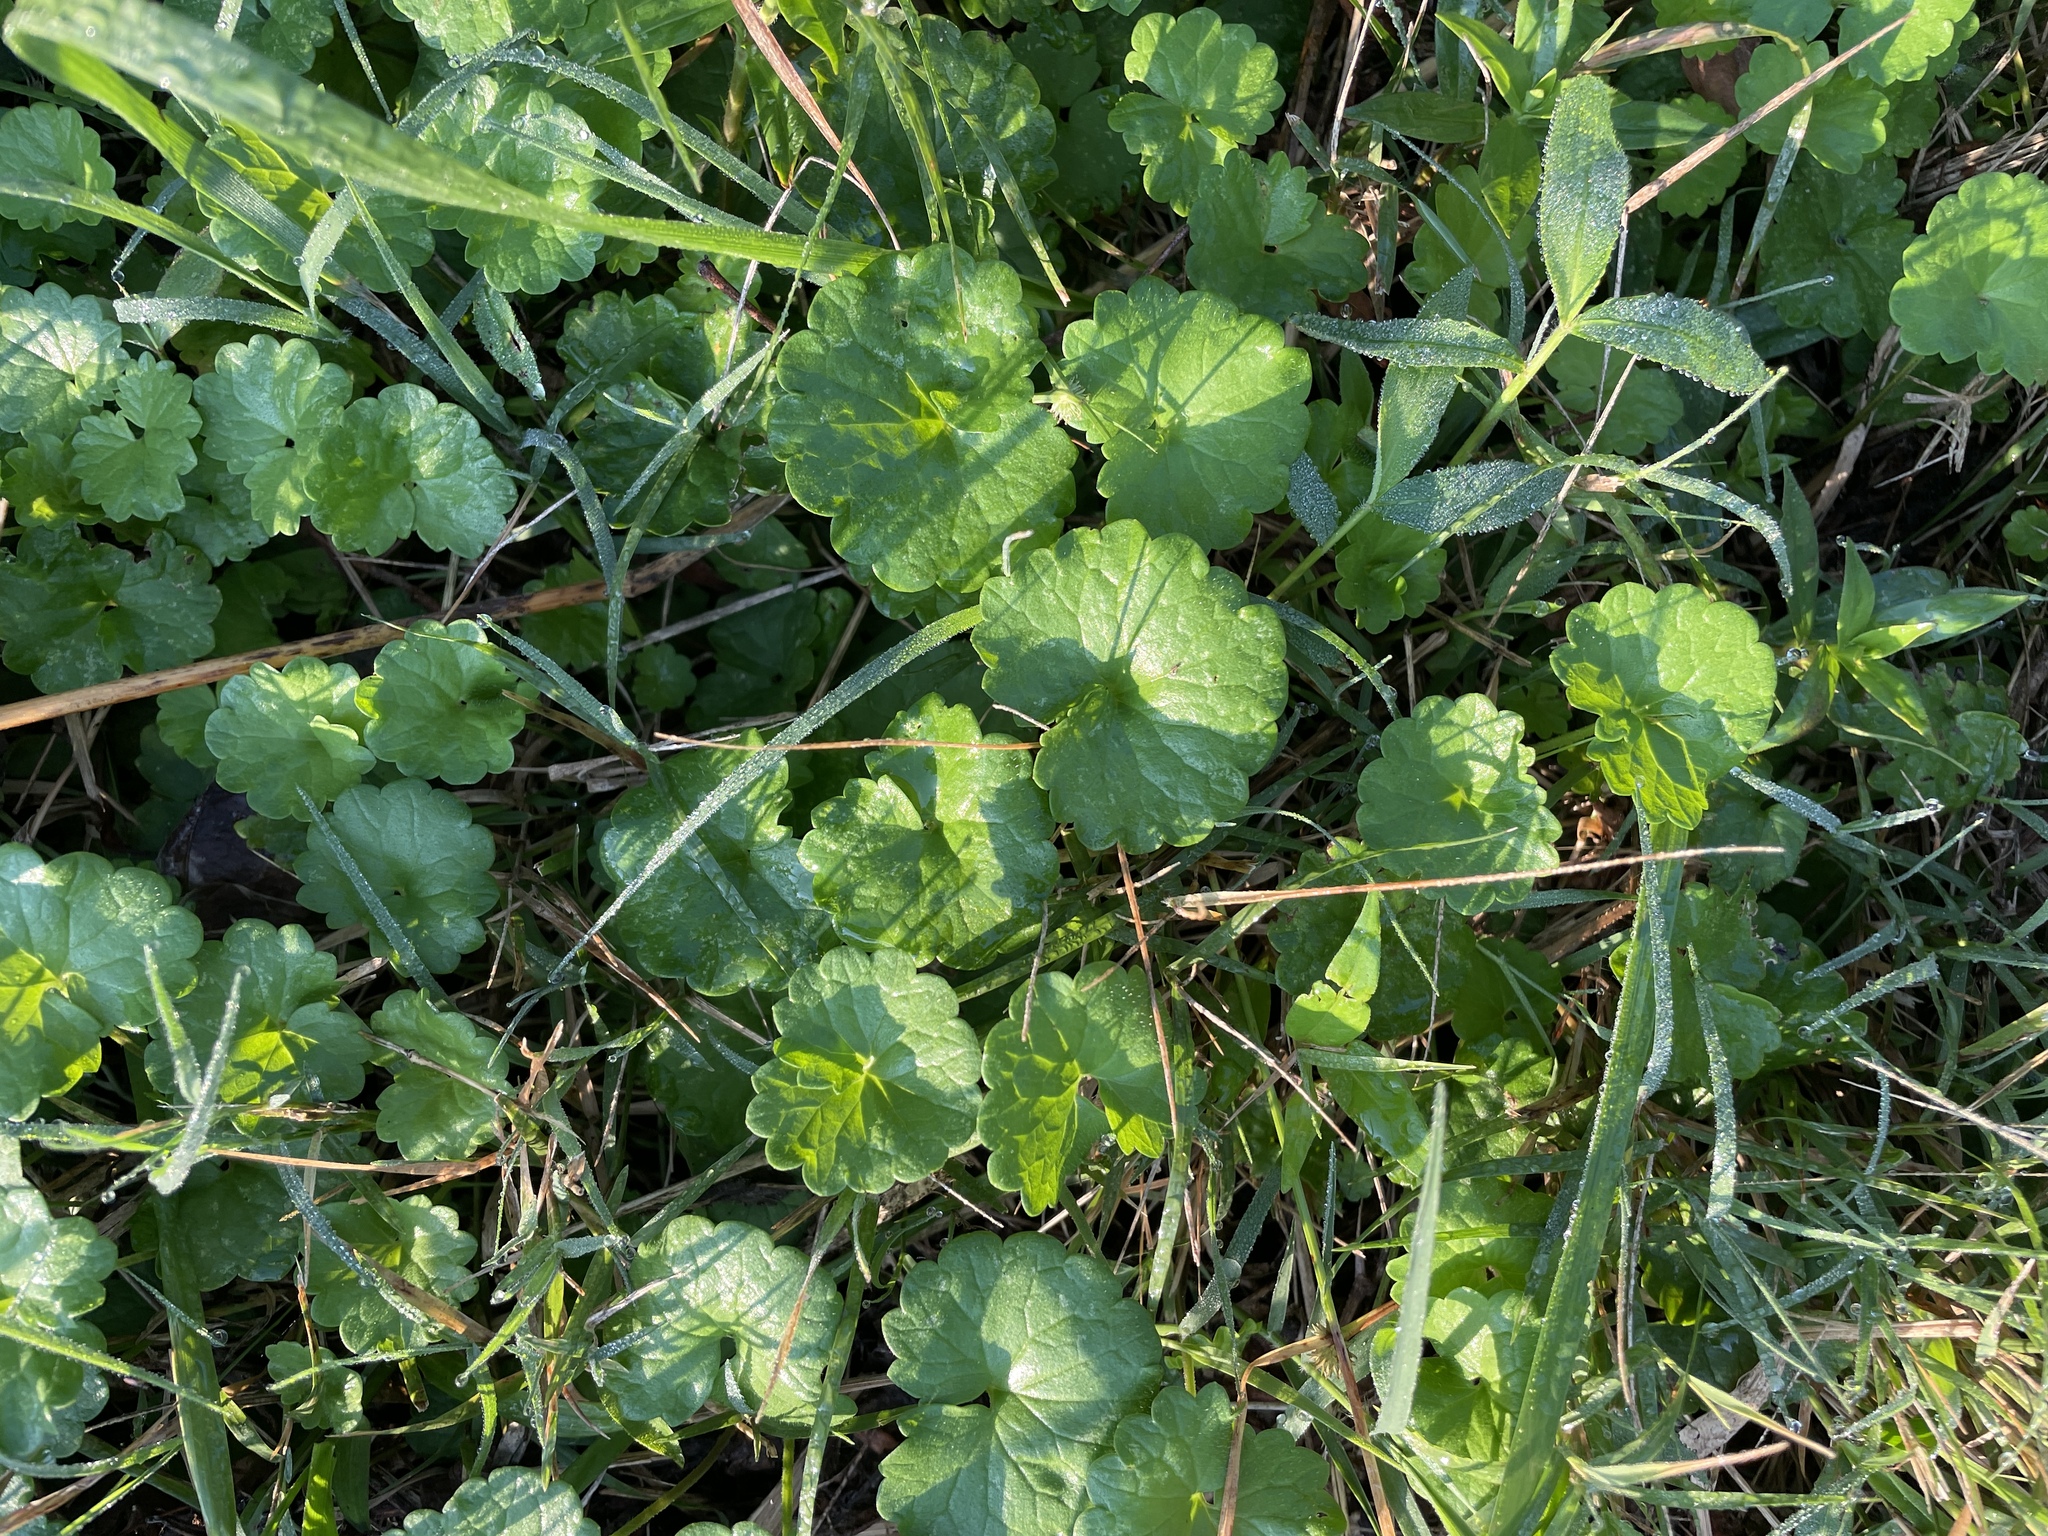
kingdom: Plantae
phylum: Tracheophyta
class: Magnoliopsida
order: Lamiales
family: Lamiaceae
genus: Glechoma
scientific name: Glechoma hederacea
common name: Ground ivy
